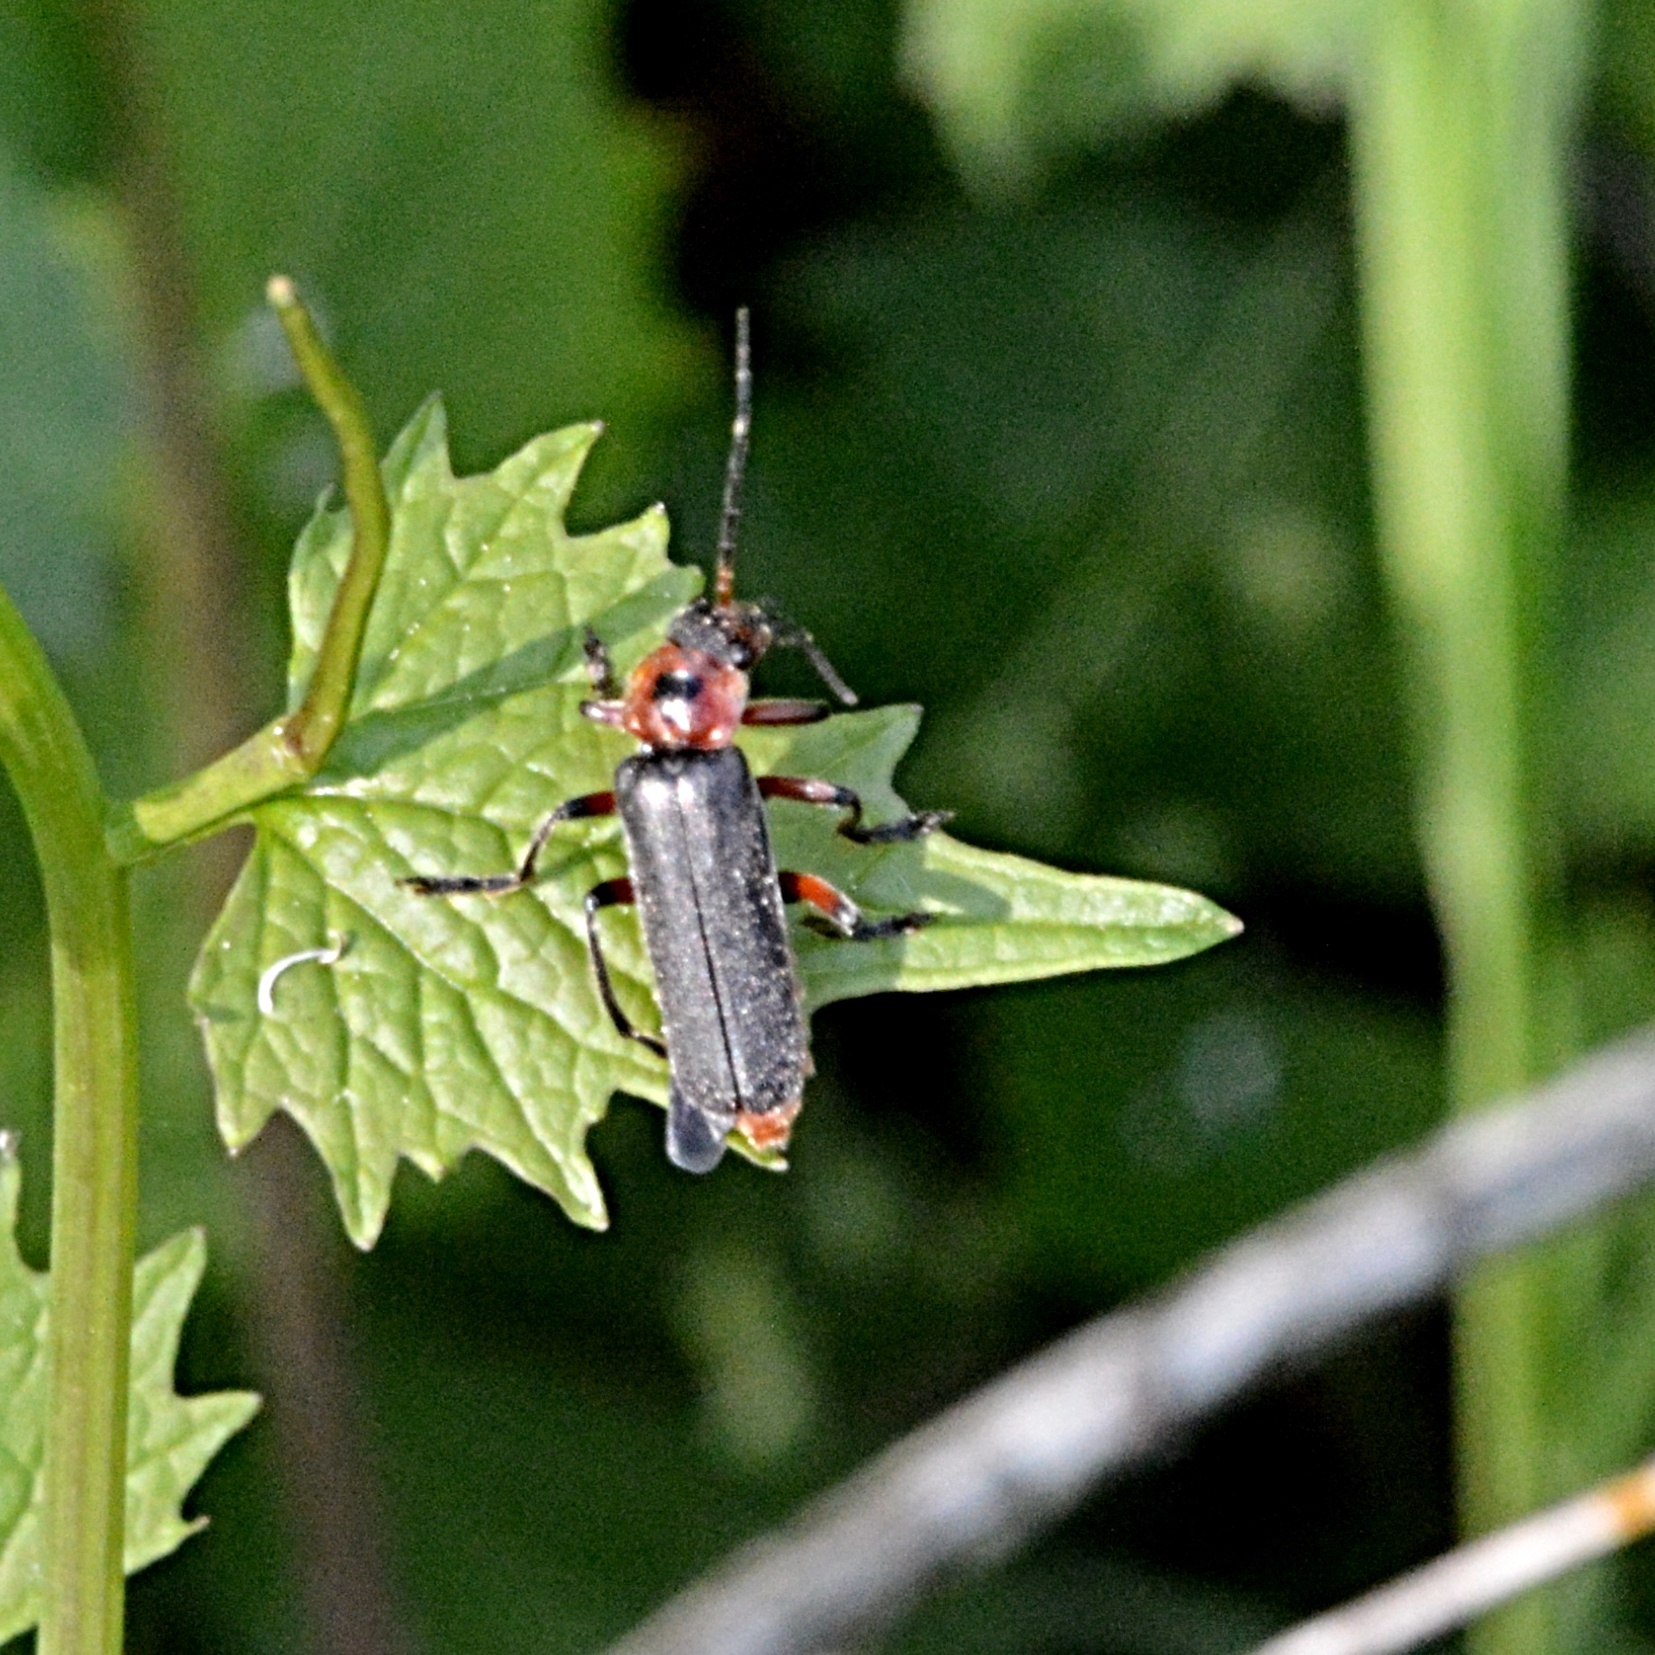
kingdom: Animalia
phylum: Arthropoda
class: Insecta
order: Coleoptera
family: Cantharidae
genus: Cantharis
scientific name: Cantharis rustica
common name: Soldier beetle
